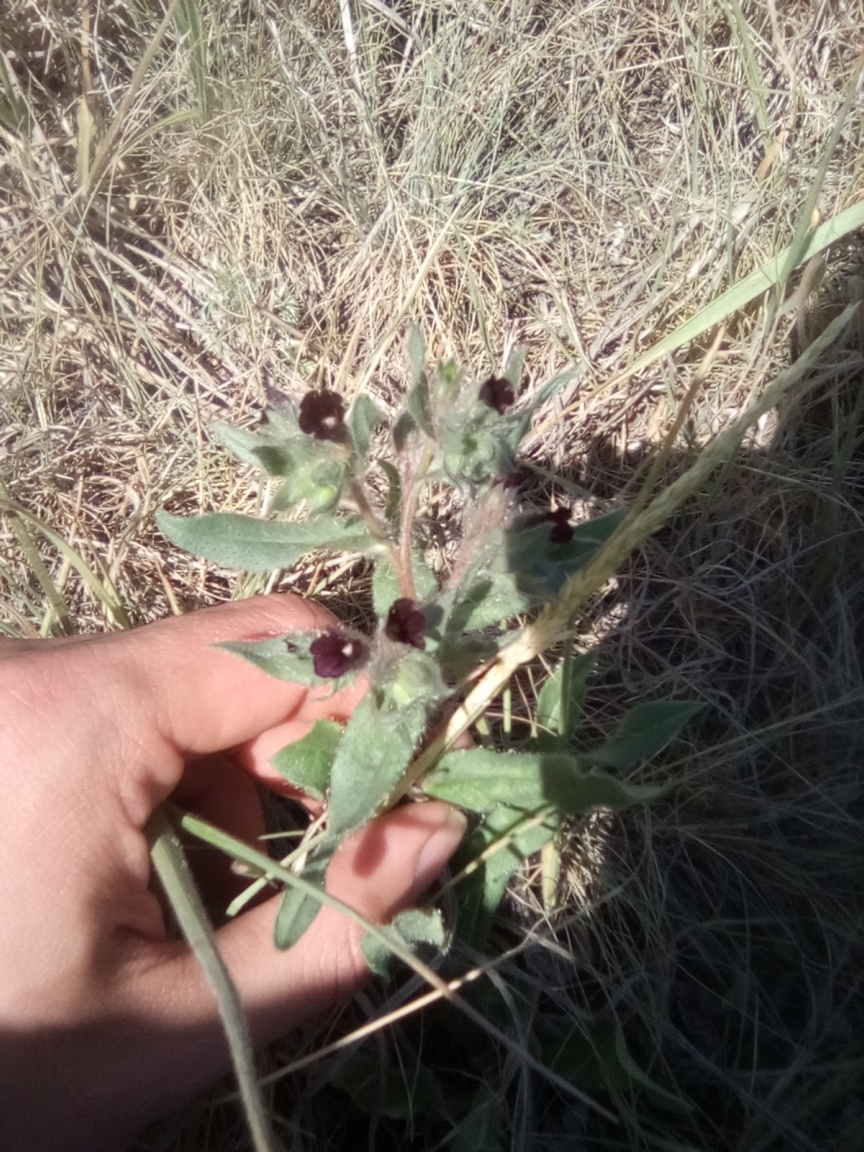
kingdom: Plantae
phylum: Tracheophyta
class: Magnoliopsida
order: Boraginales
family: Boraginaceae
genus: Nonea
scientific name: Nonea pulla
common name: Brown nonea
